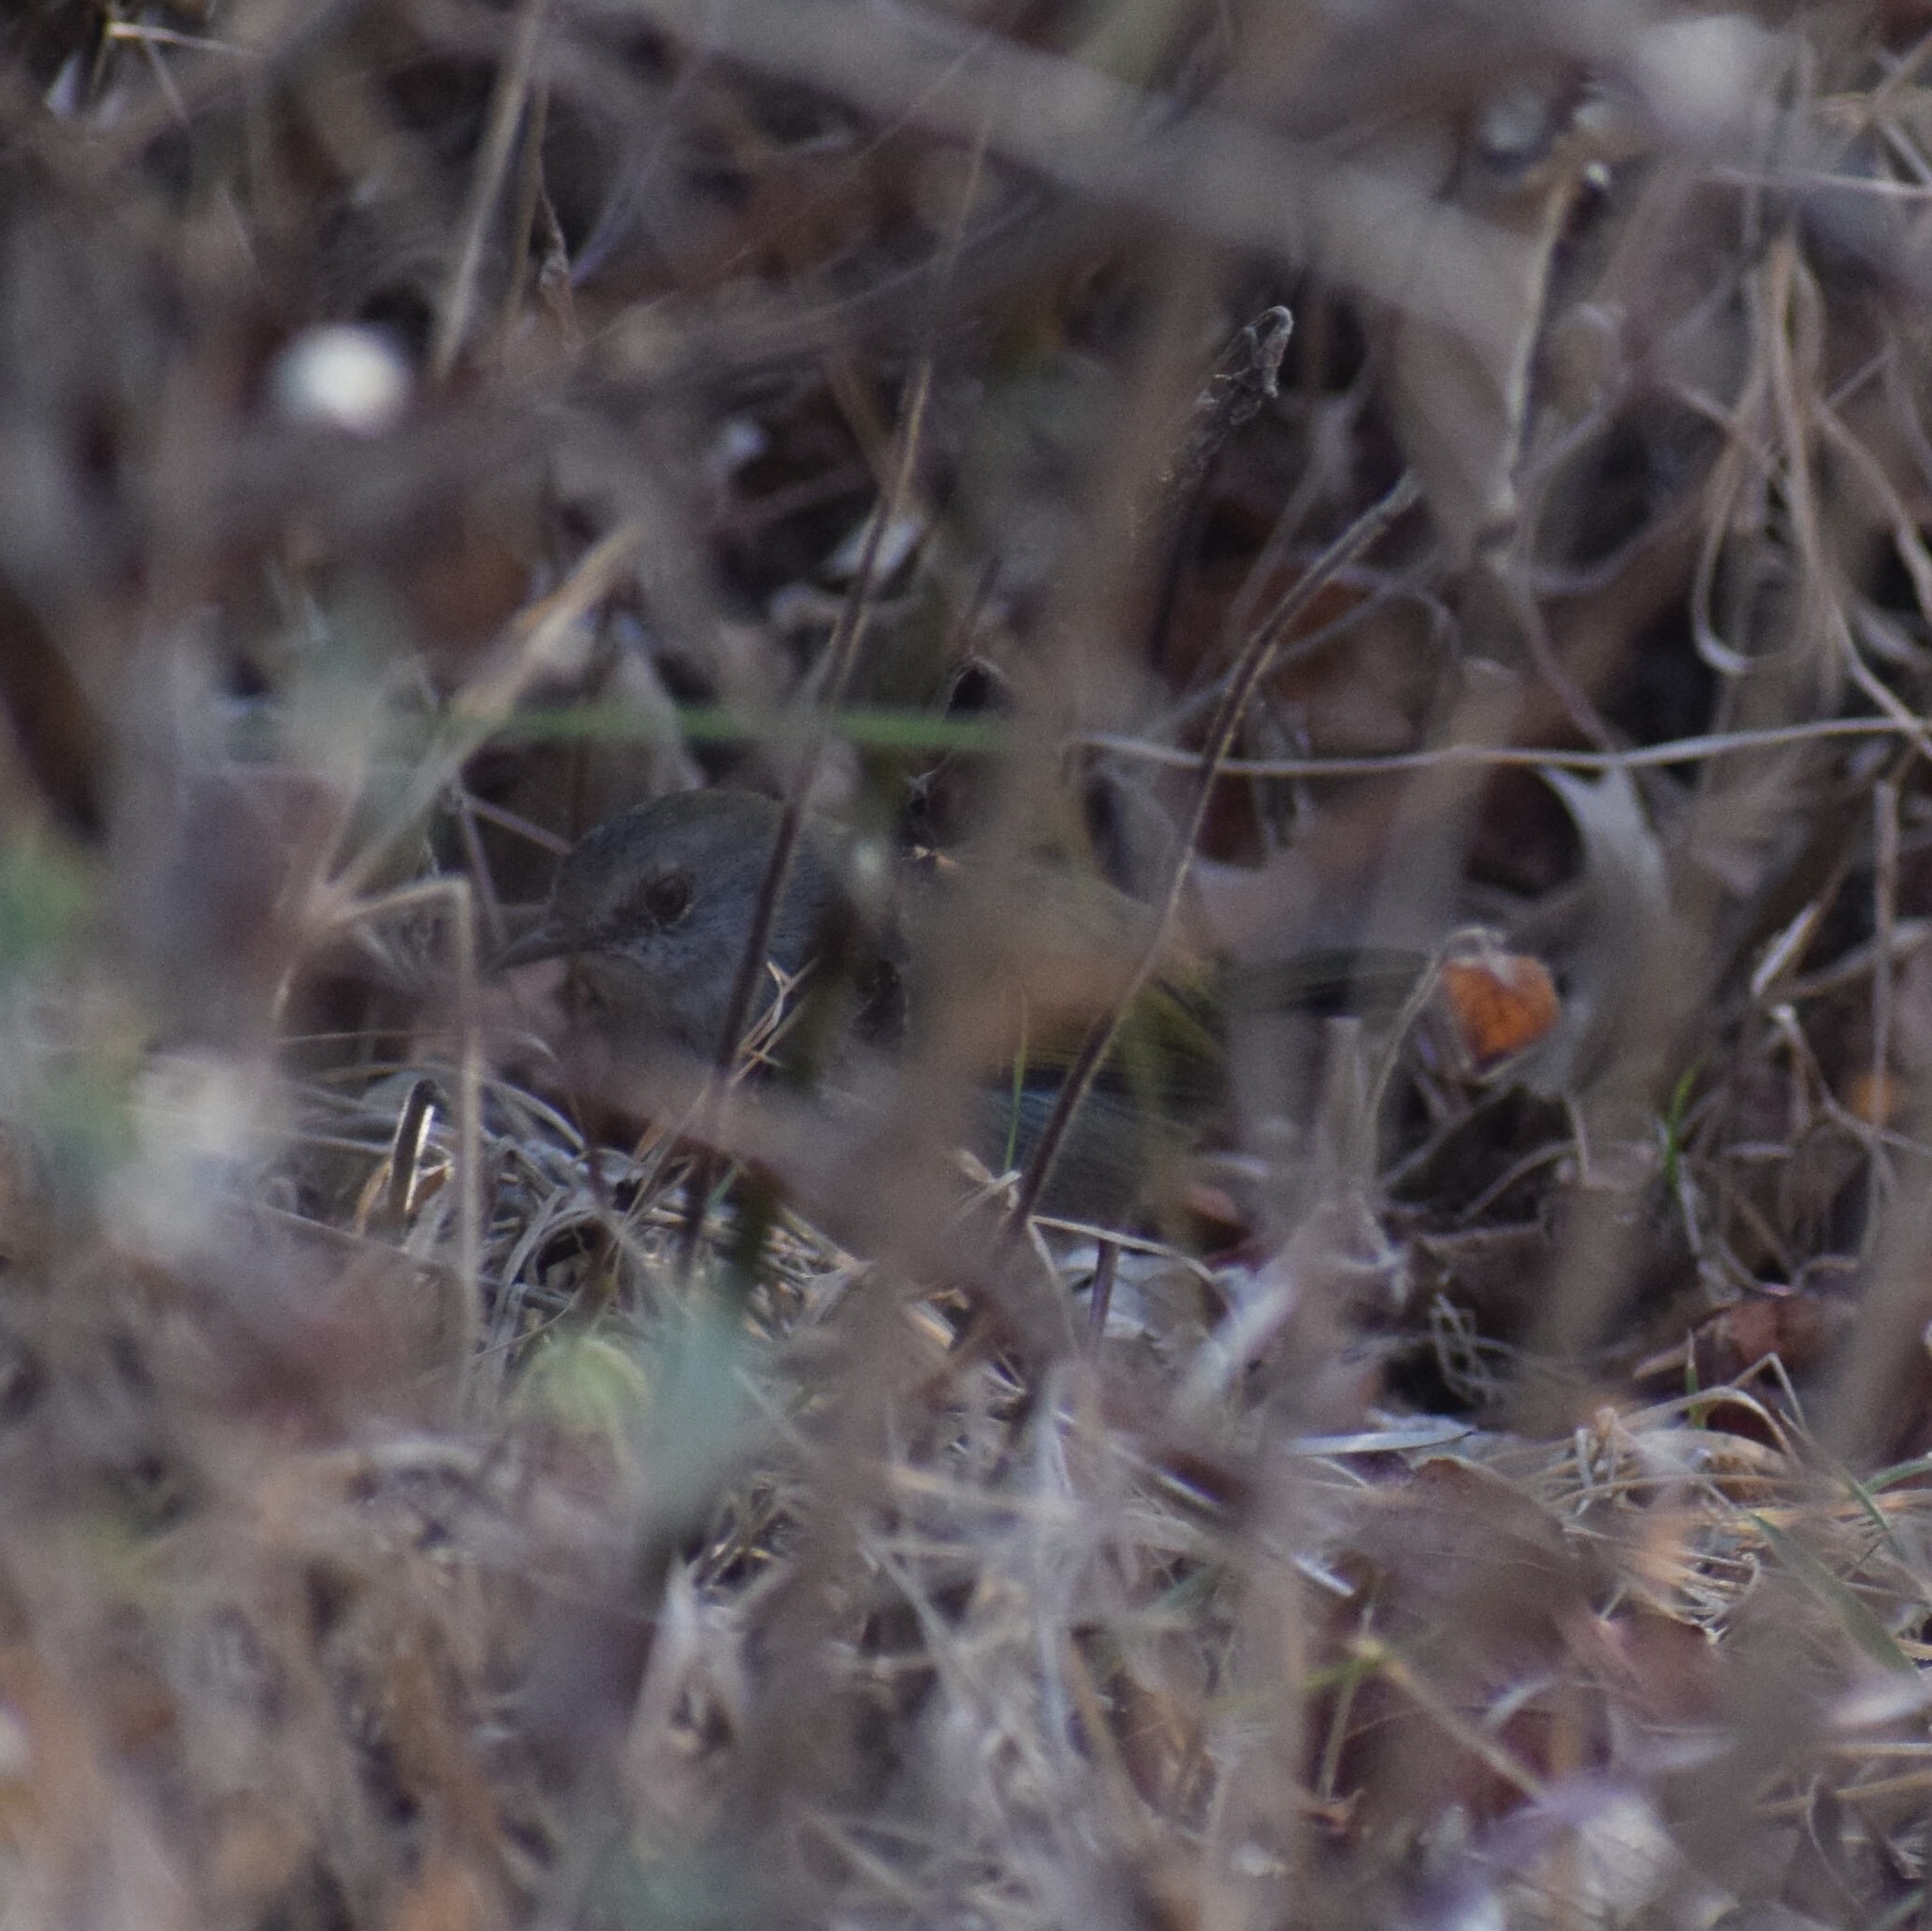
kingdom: Animalia
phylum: Chordata
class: Aves
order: Passeriformes
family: Cisticolidae
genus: Camaroptera
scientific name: Camaroptera brachyura
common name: Green-backed camaroptera
